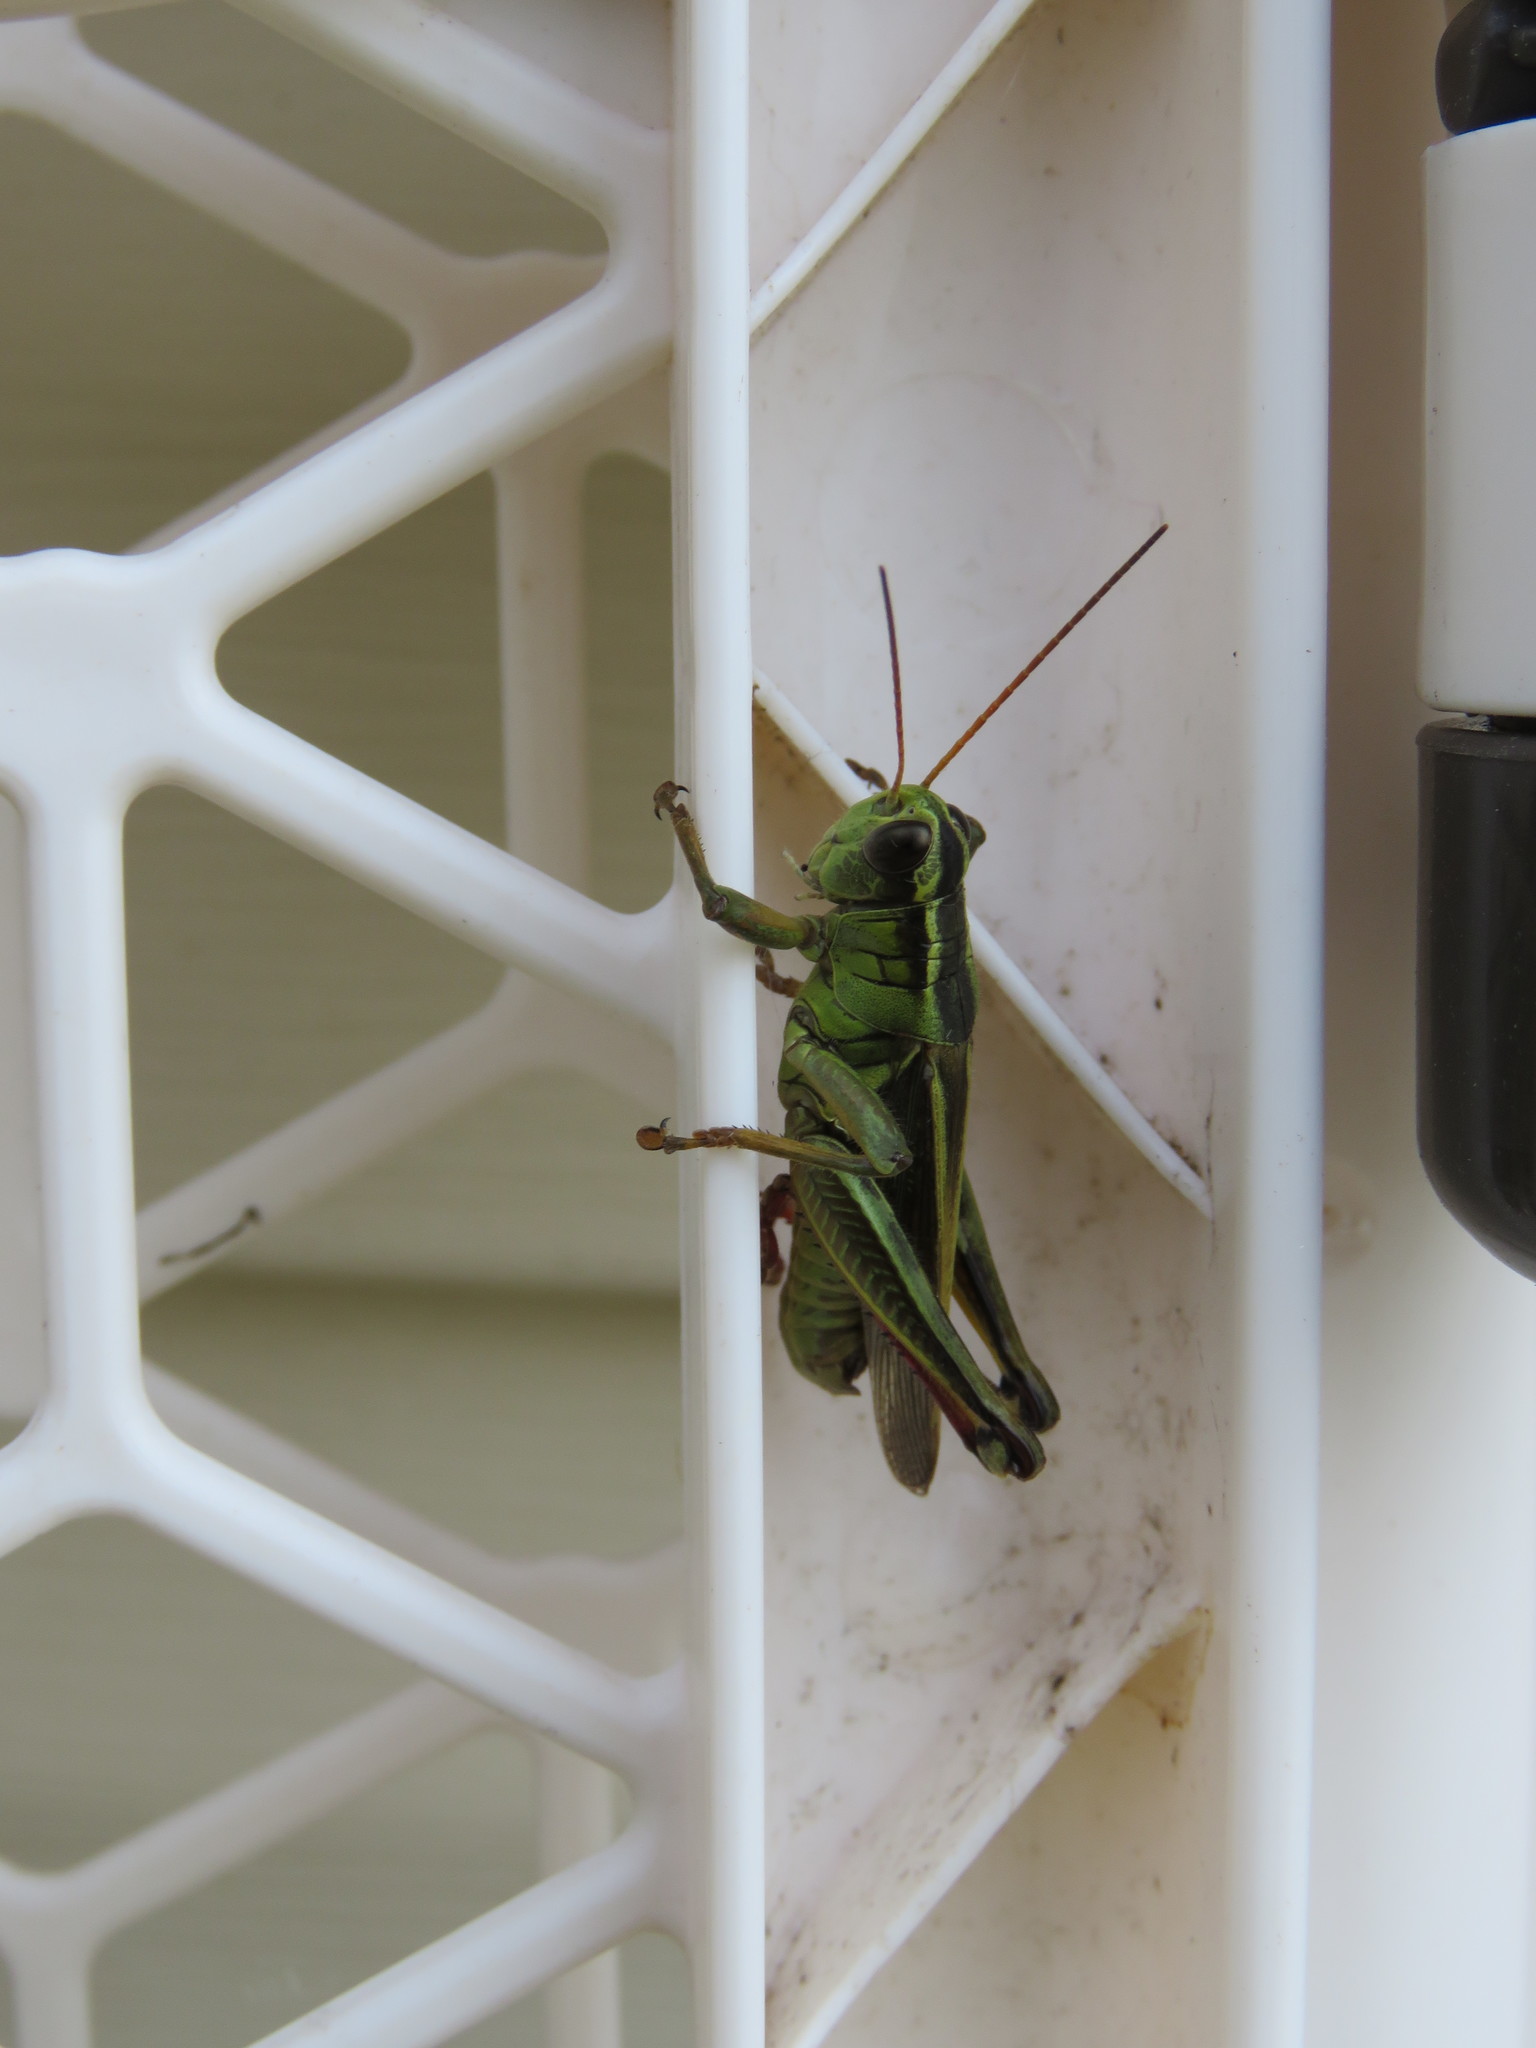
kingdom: Animalia
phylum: Arthropoda
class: Insecta
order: Orthoptera
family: Acrididae
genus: Melanoplus
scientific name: Melanoplus bivittatus
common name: Two-striped grasshopper
